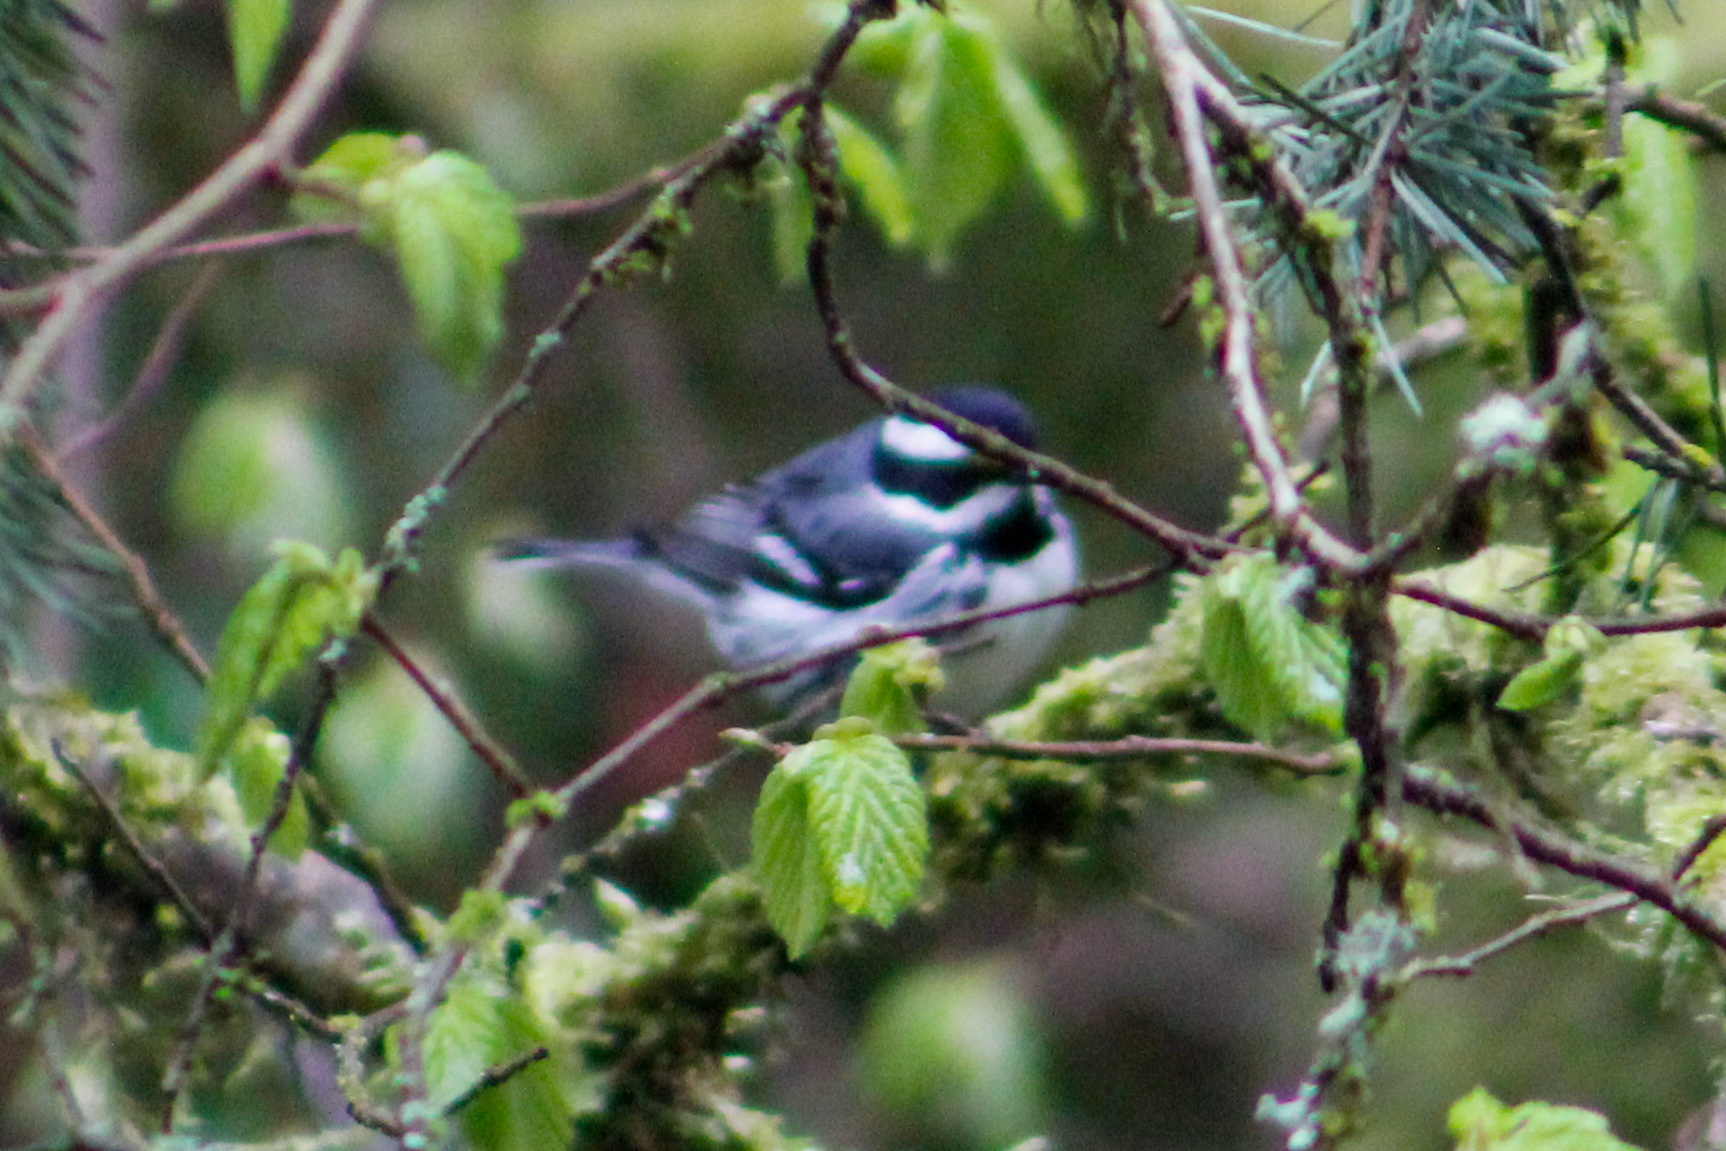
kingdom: Animalia
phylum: Chordata
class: Aves
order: Passeriformes
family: Parulidae
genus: Setophaga
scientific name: Setophaga nigrescens
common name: Black-throated gray warbler
